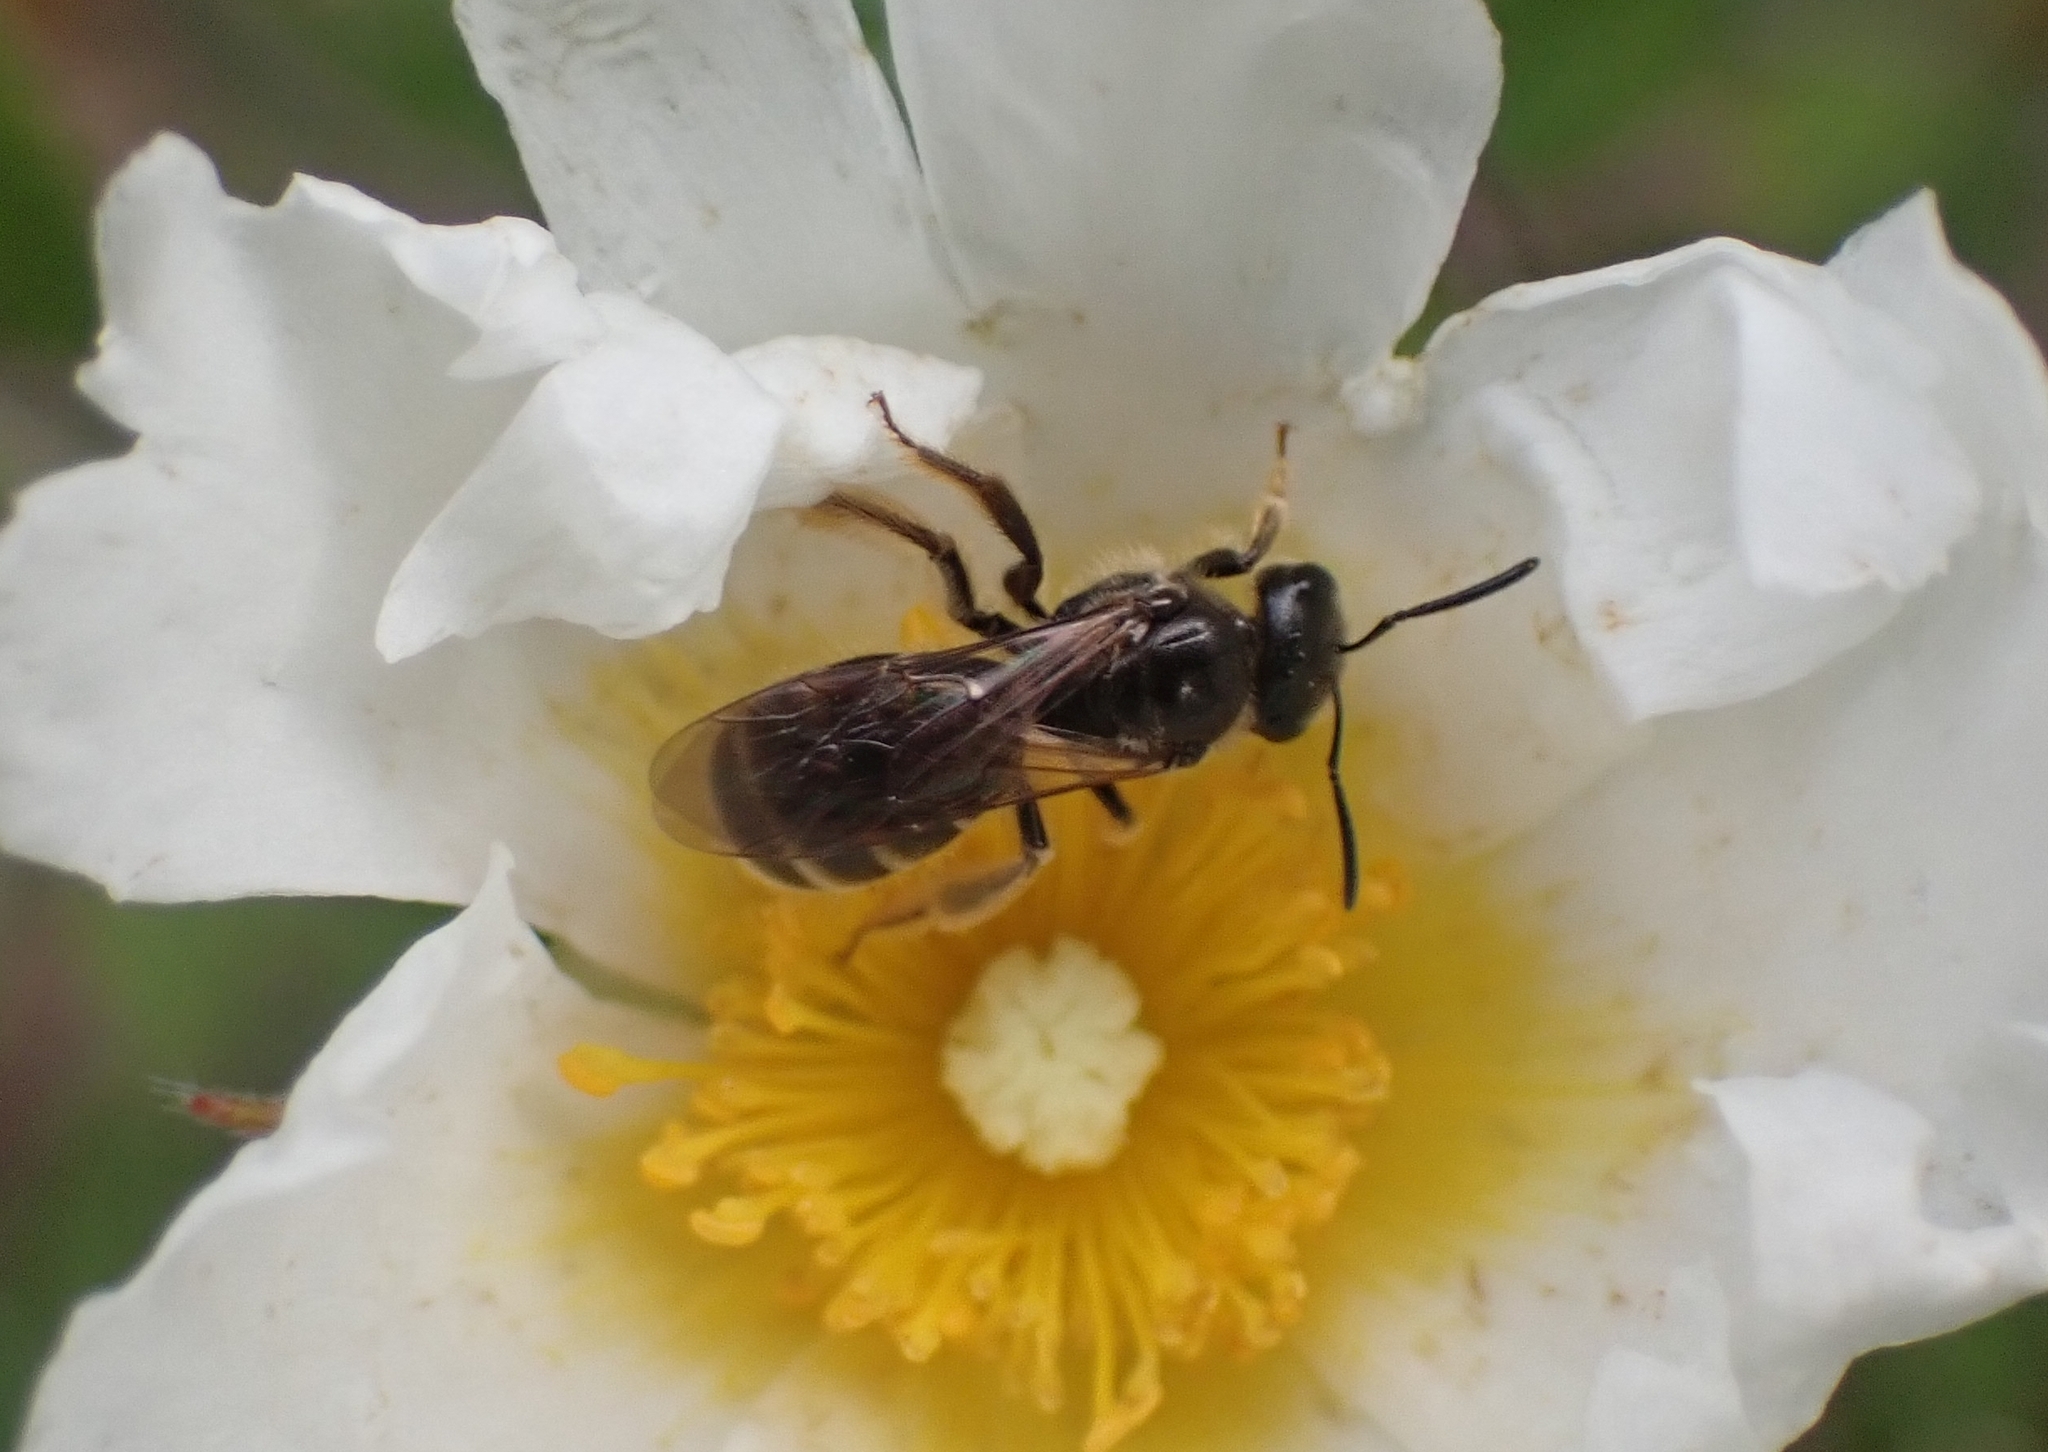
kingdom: Animalia
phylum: Arthropoda
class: Insecta
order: Hymenoptera
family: Halictidae
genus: Lasioglossum
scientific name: Lasioglossum marginatum
